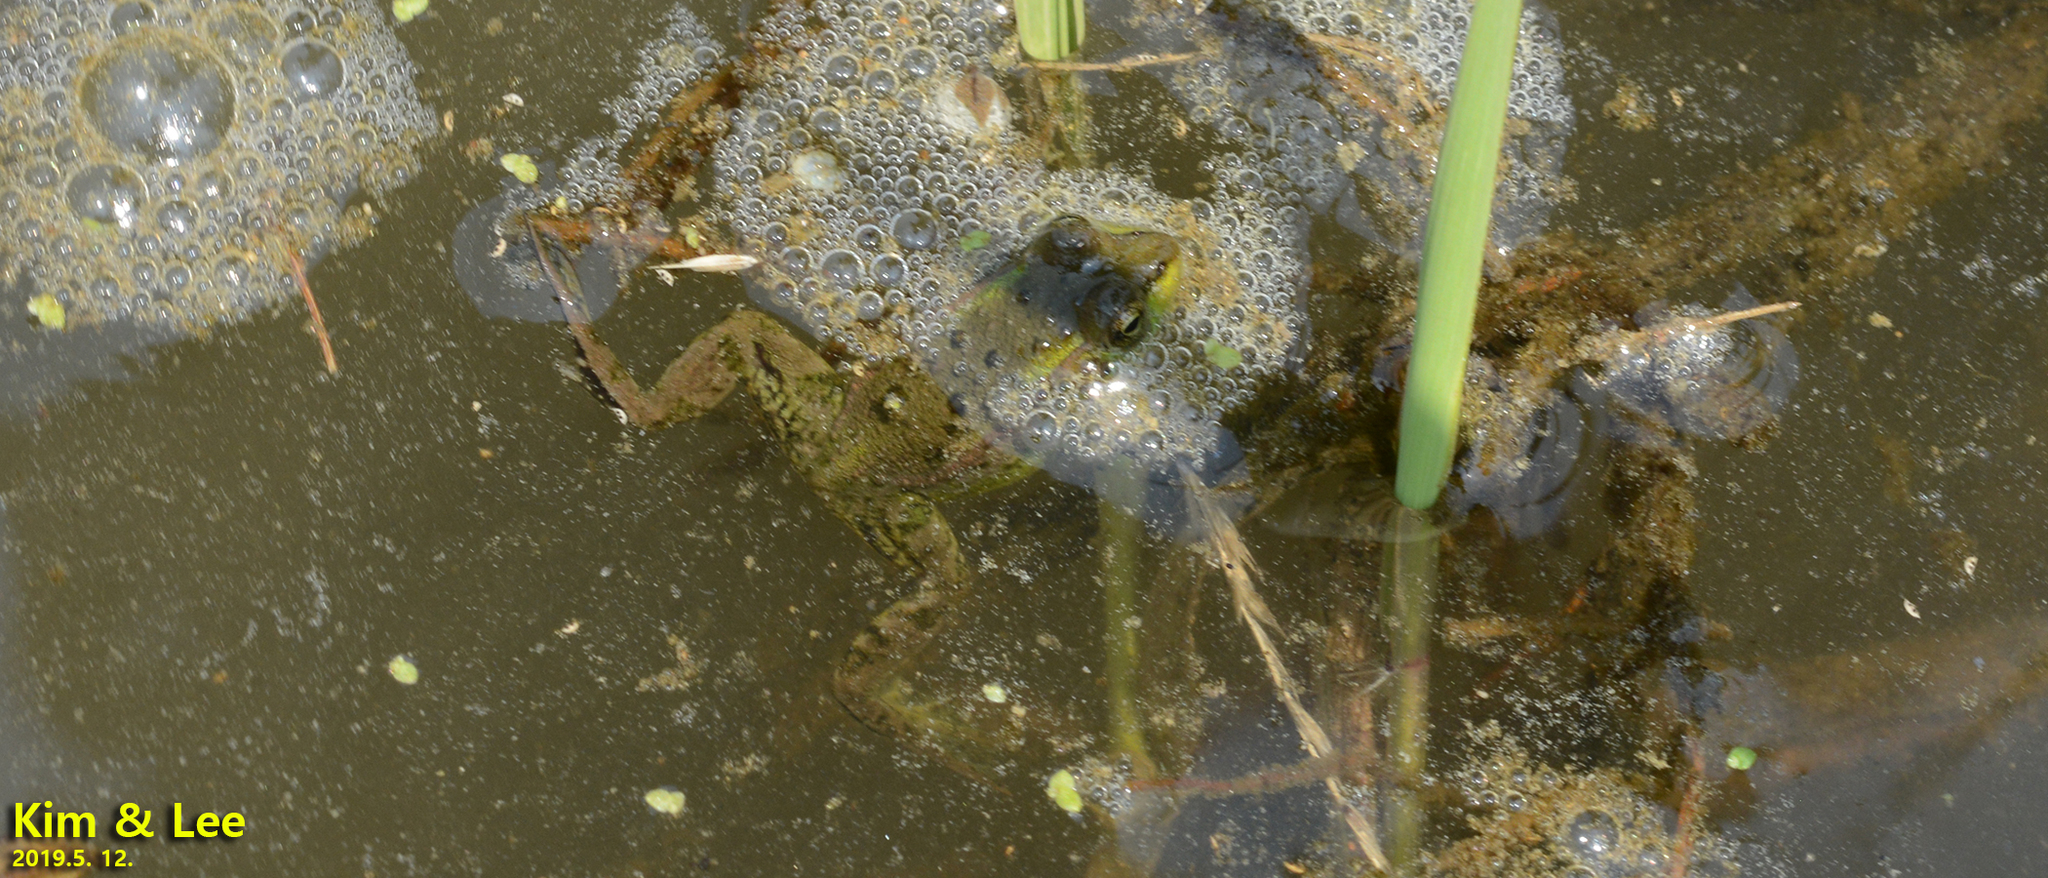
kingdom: Animalia
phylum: Chordata
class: Amphibia
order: Anura
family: Ranidae
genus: Pelophylax
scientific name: Pelophylax chosenicus
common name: Gold-spotted pond frog
